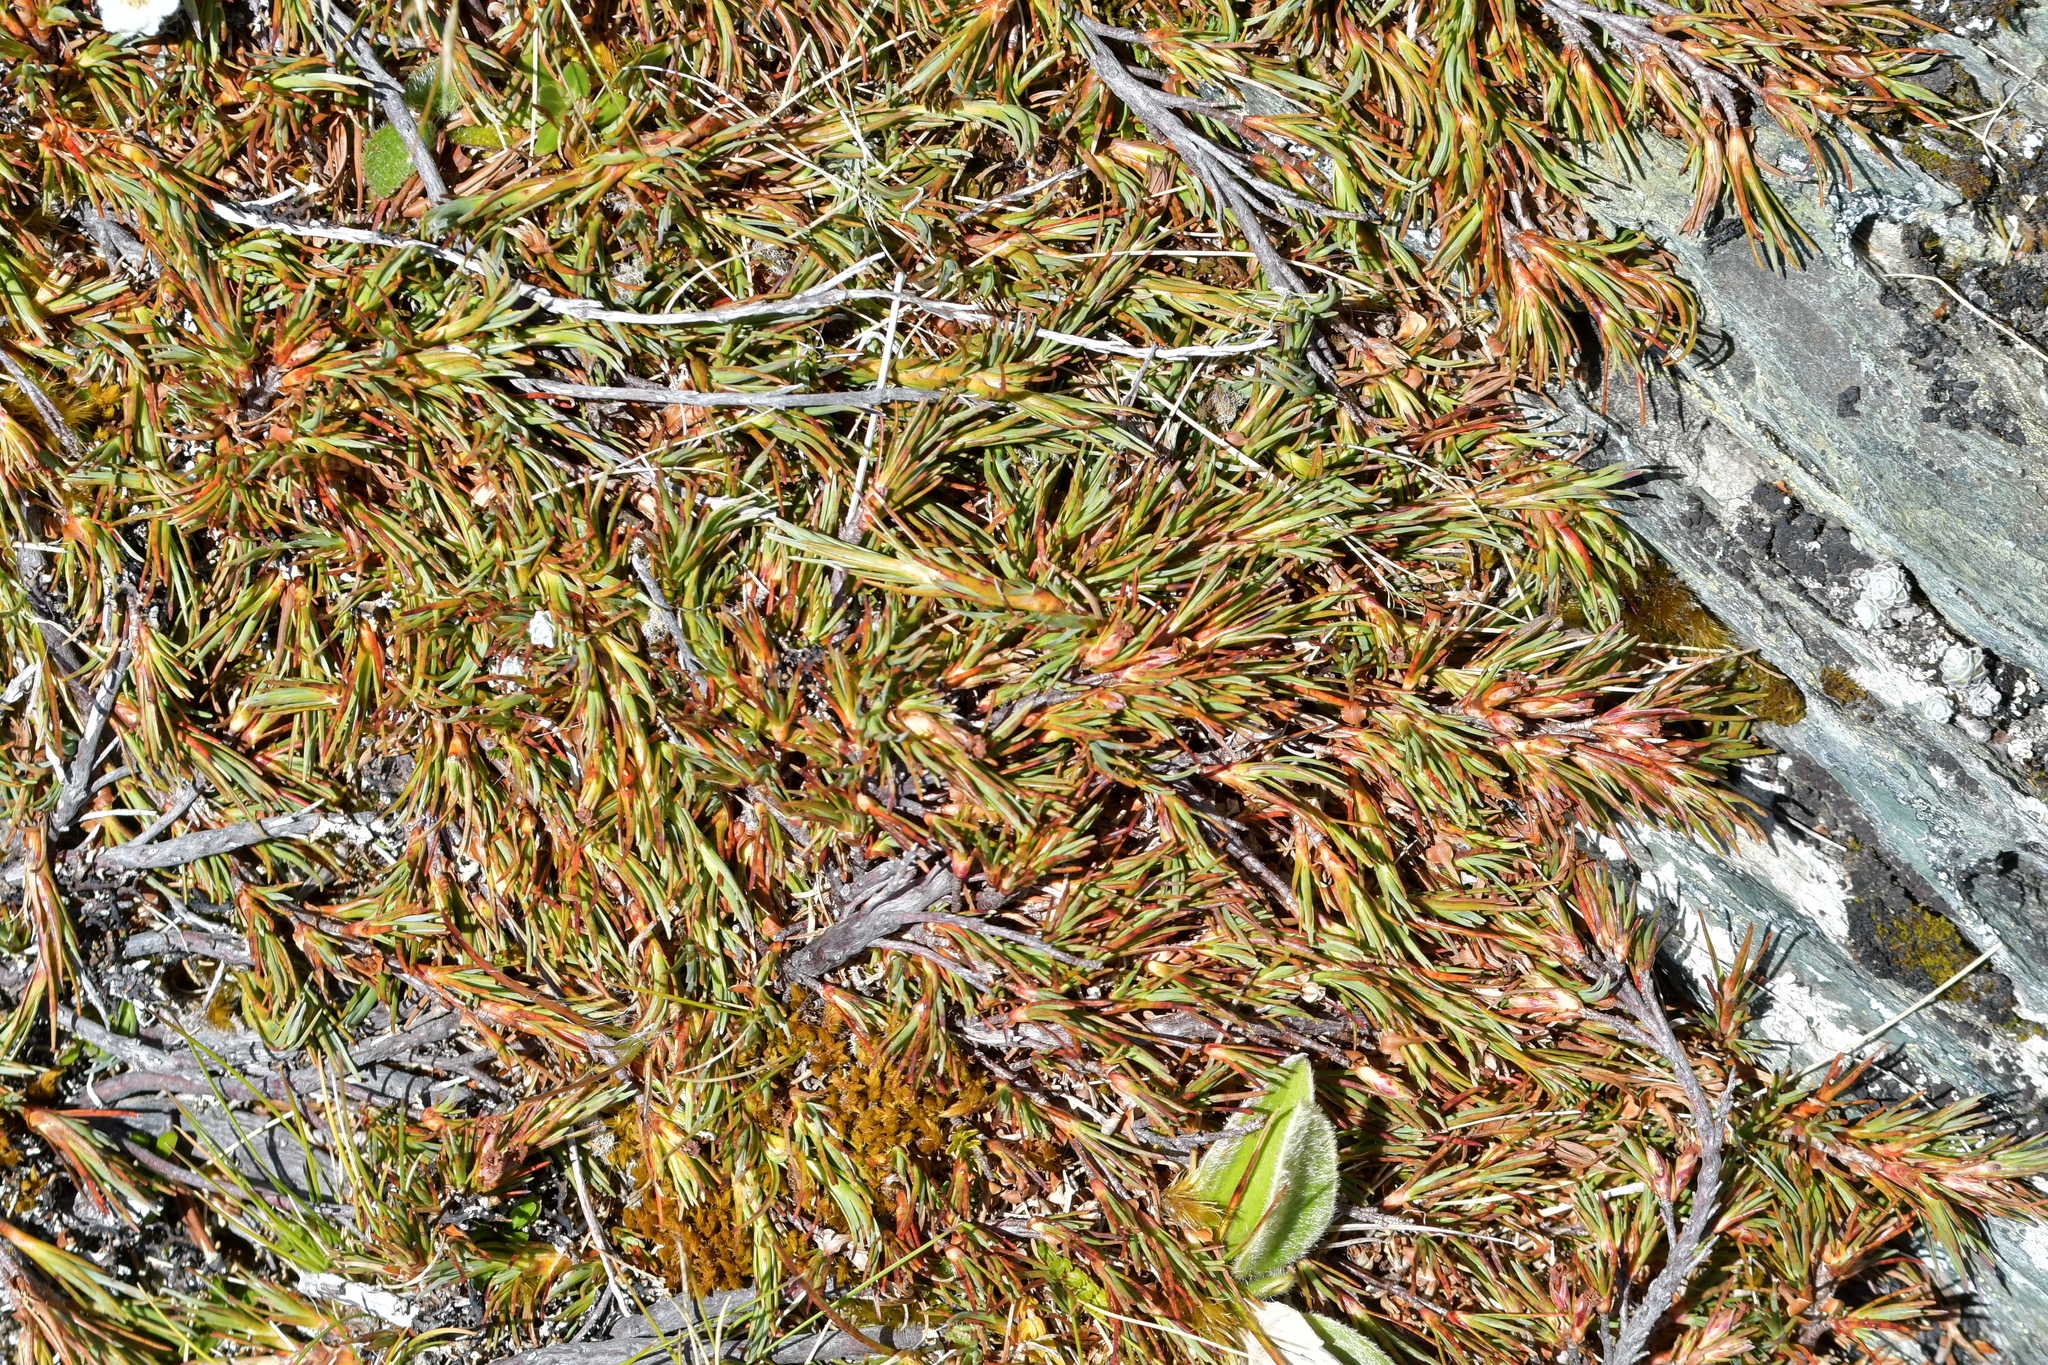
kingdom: Plantae
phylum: Tracheophyta
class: Magnoliopsida
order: Ericales
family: Ericaceae
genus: Dracophyllum
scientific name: Dracophyllum pronum
